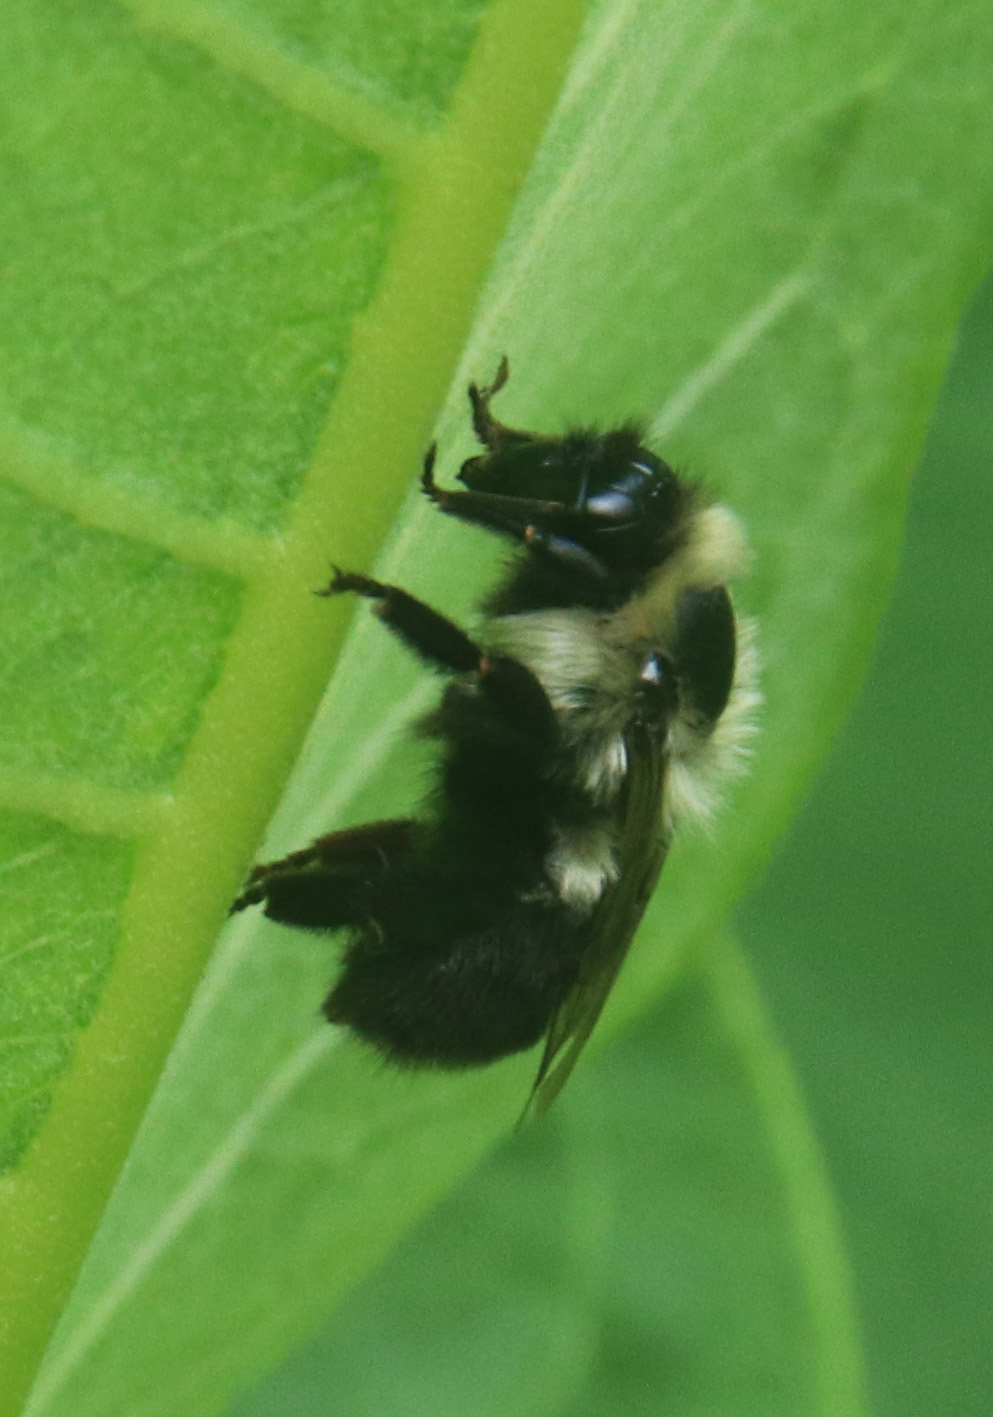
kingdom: Animalia
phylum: Arthropoda
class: Insecta
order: Hymenoptera
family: Apidae
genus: Bombus
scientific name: Bombus impatiens
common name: Common eastern bumble bee
